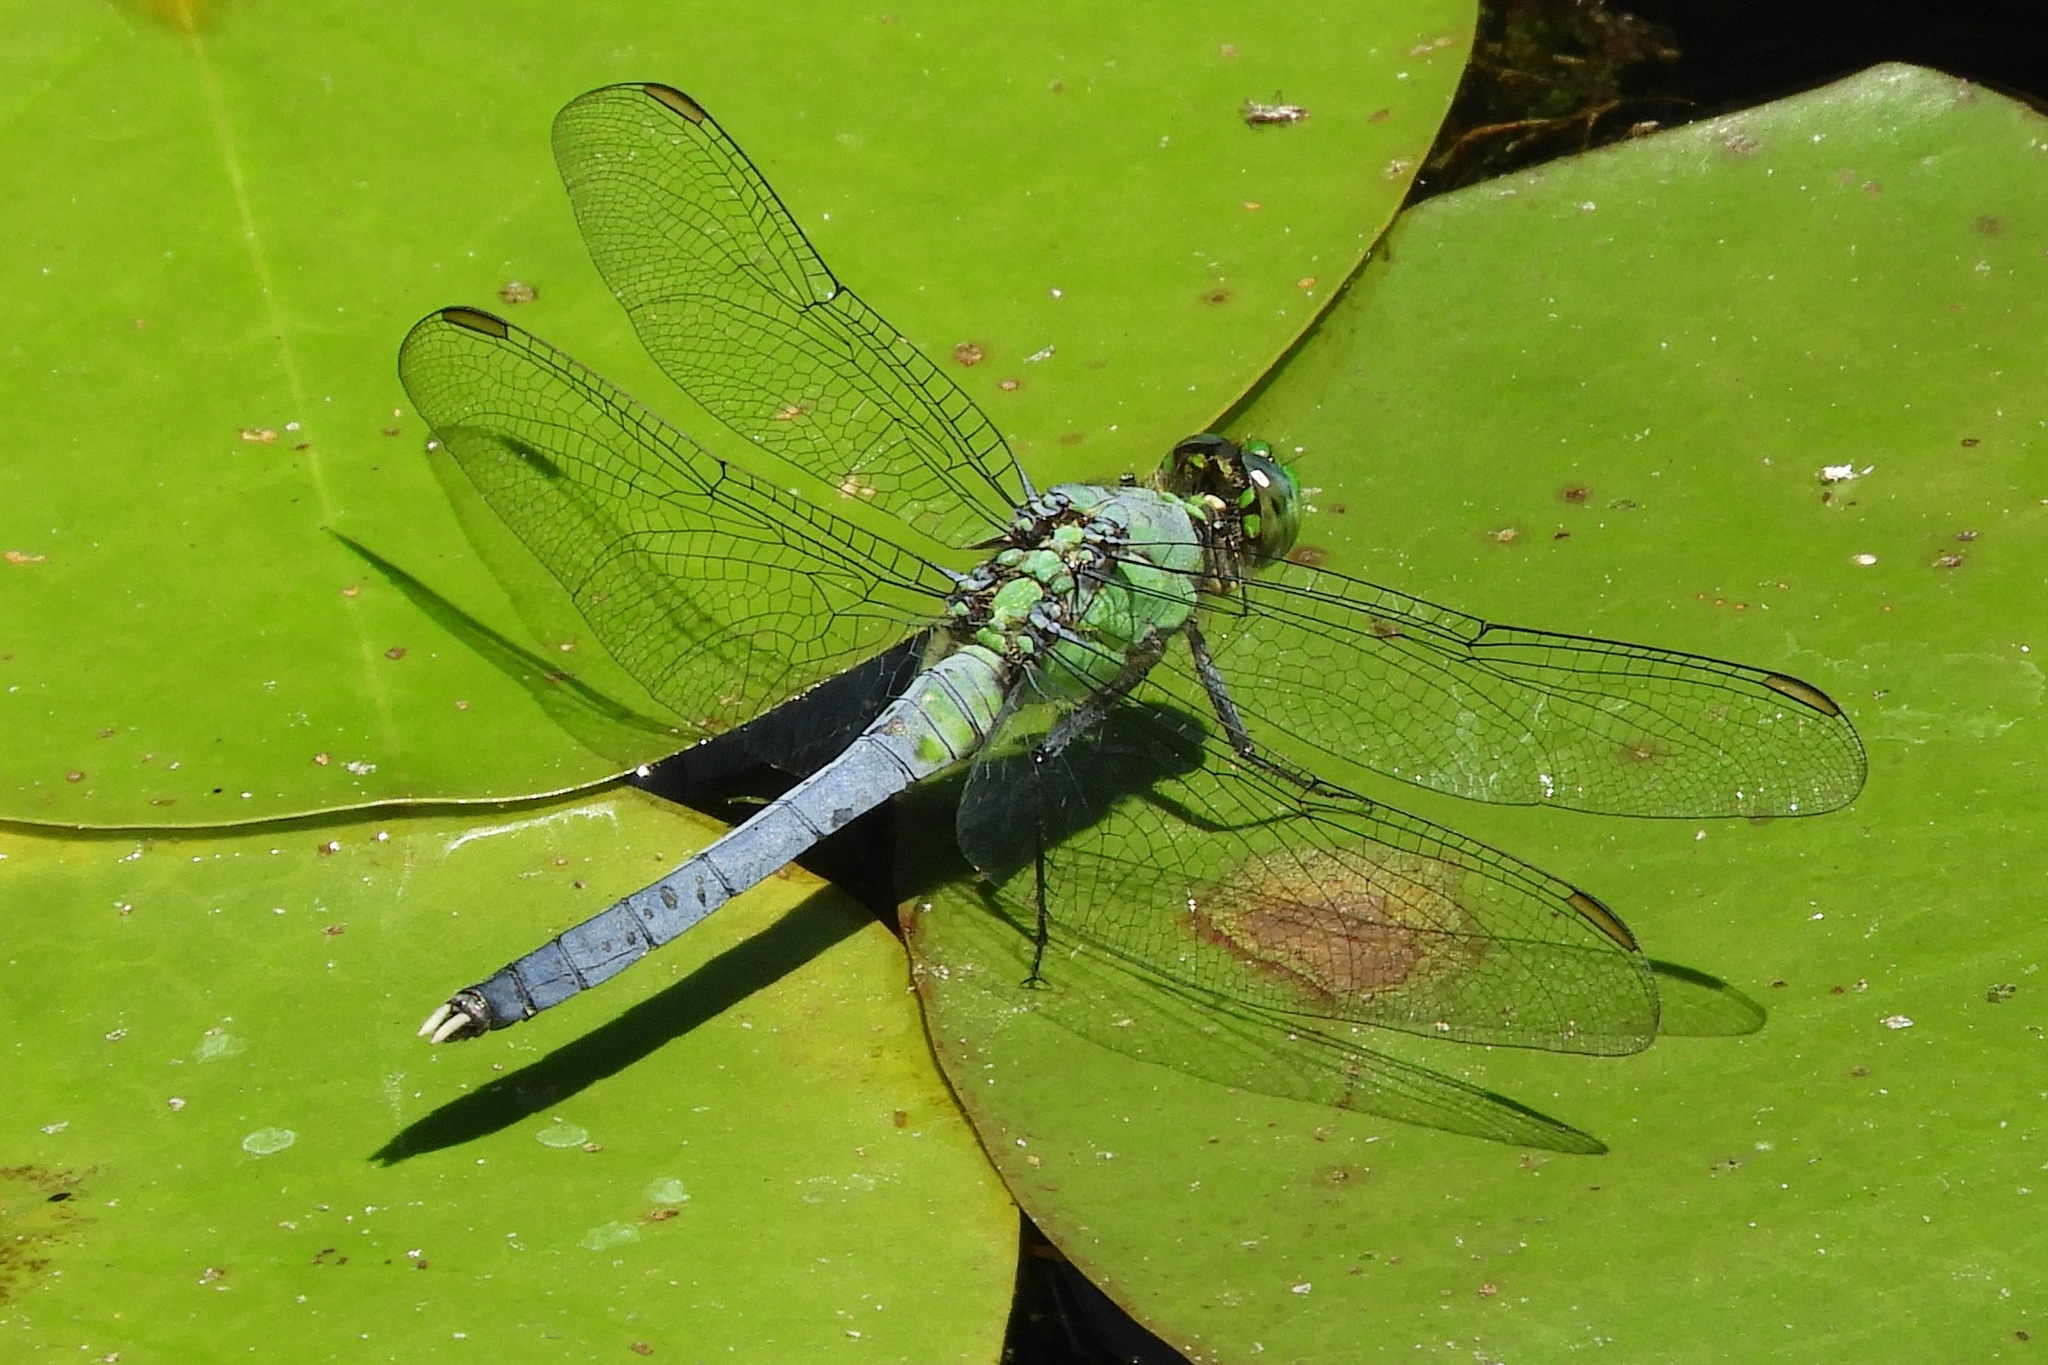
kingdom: Animalia
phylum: Arthropoda
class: Insecta
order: Odonata
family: Libellulidae
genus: Erythemis
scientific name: Erythemis simplicicollis
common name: Eastern pondhawk
